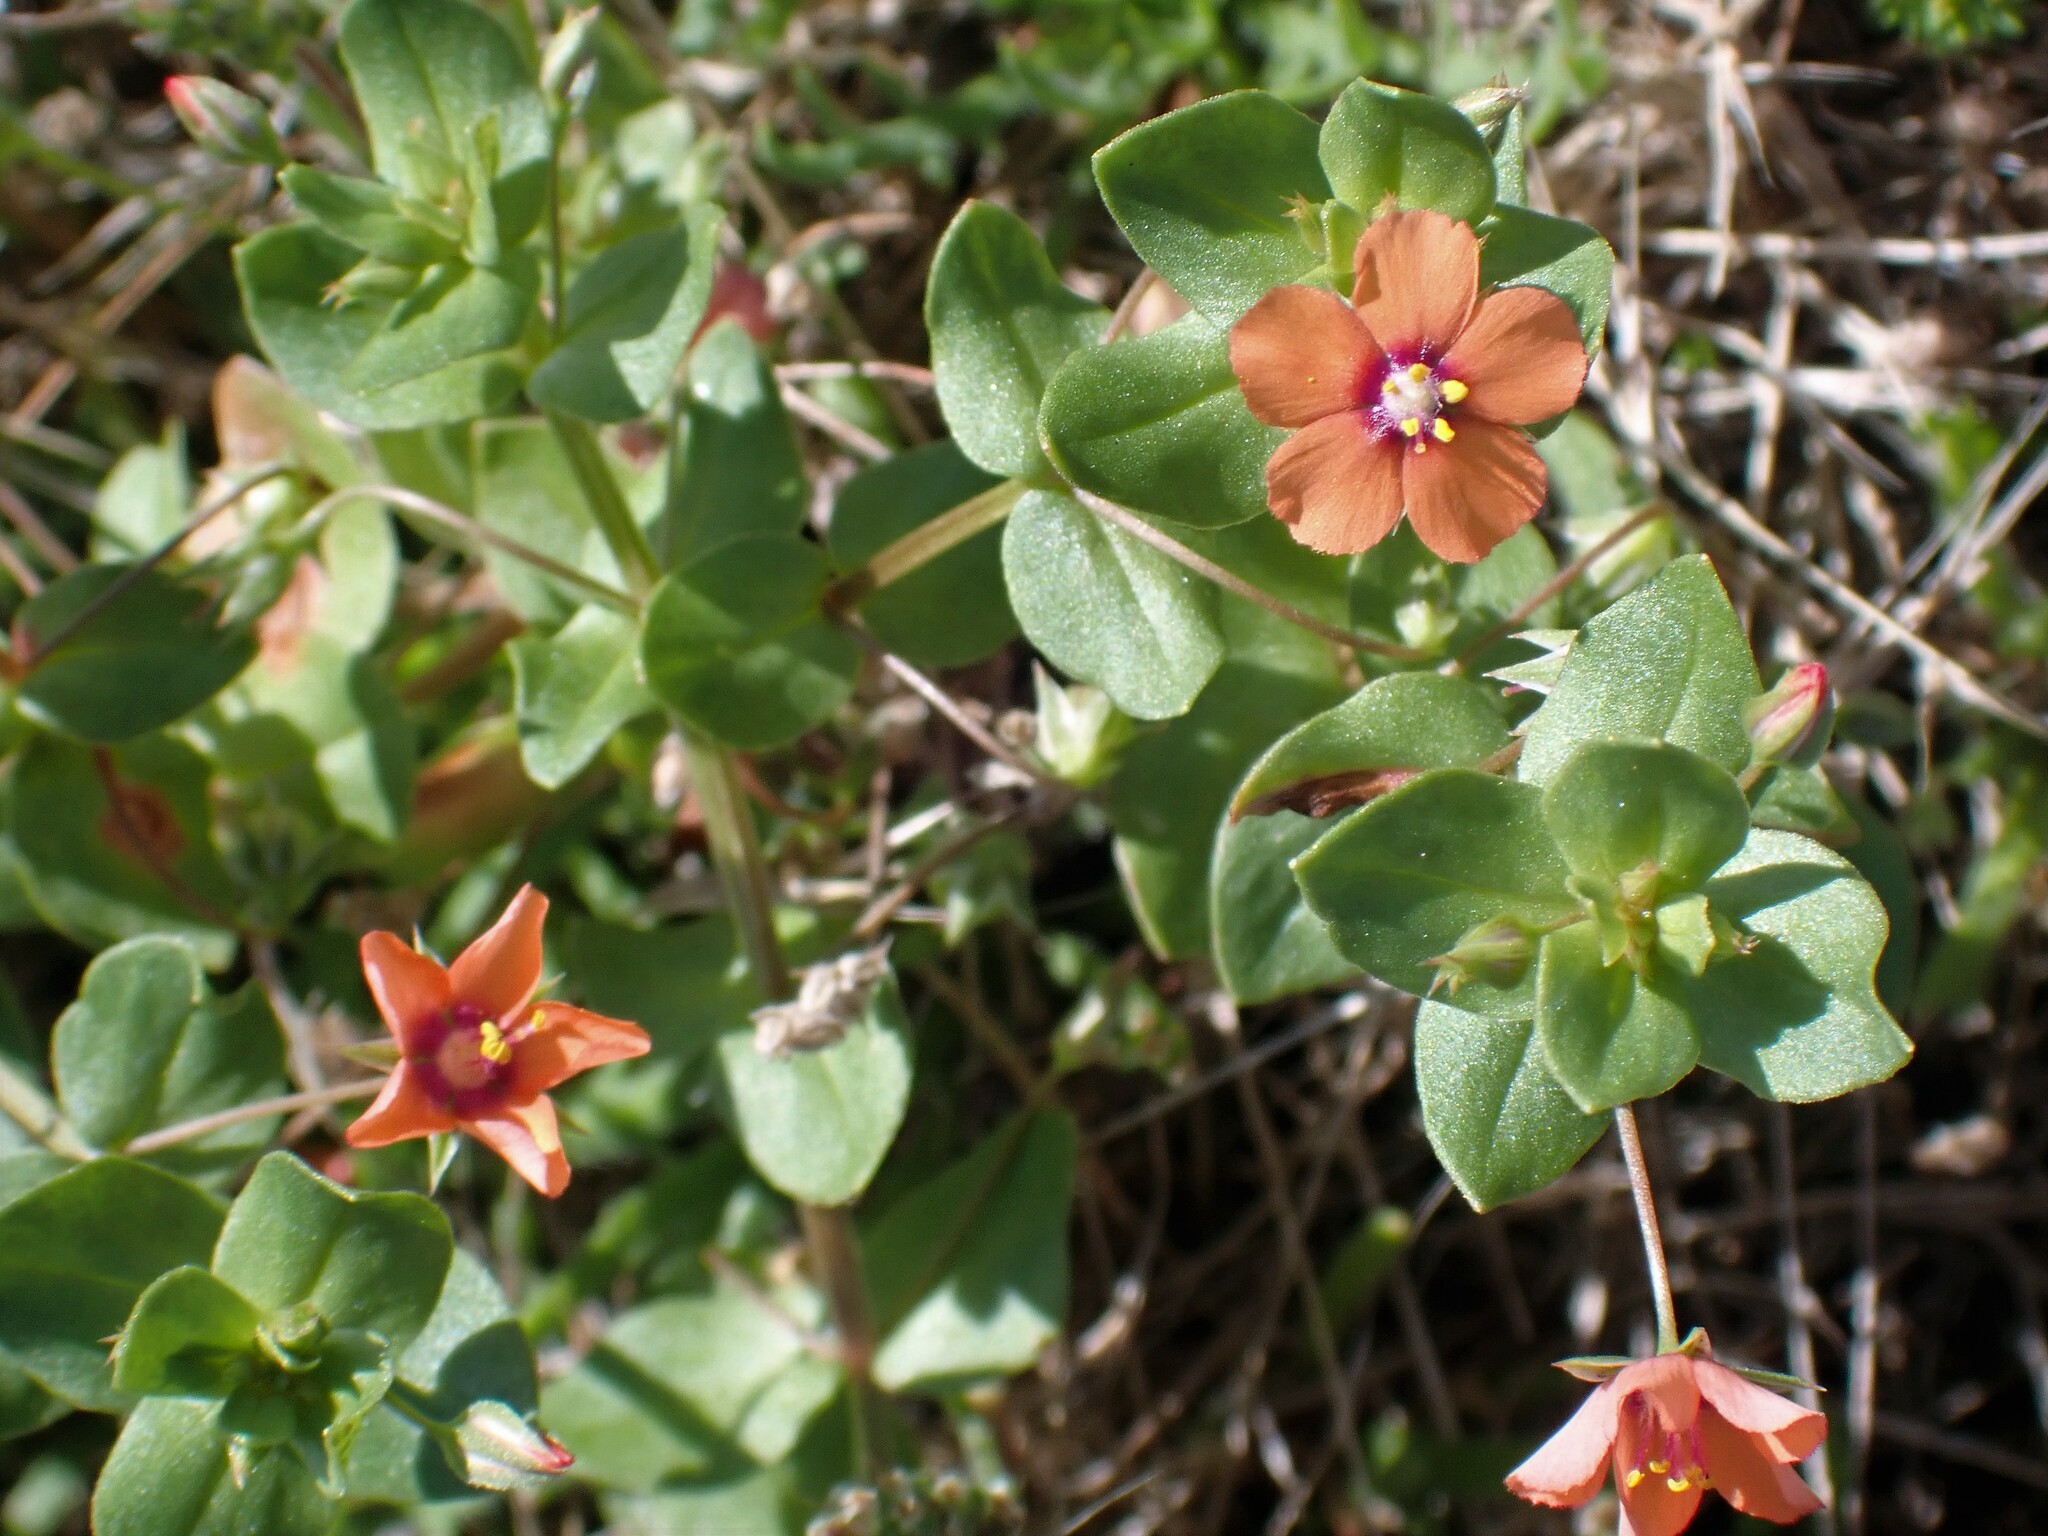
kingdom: Plantae
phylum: Tracheophyta
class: Magnoliopsida
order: Ericales
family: Primulaceae
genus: Lysimachia
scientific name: Lysimachia arvensis
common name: Scarlet pimpernel
